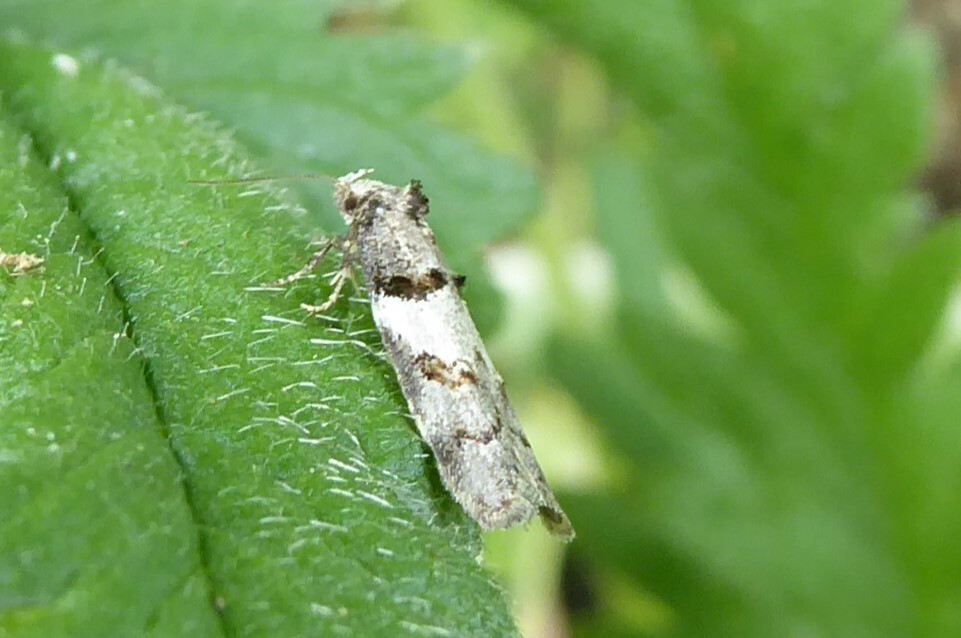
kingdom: Animalia
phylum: Arthropoda
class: Insecta
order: Lepidoptera
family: Oecophoridae
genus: Trachypepla
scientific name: Trachypepla contritella
